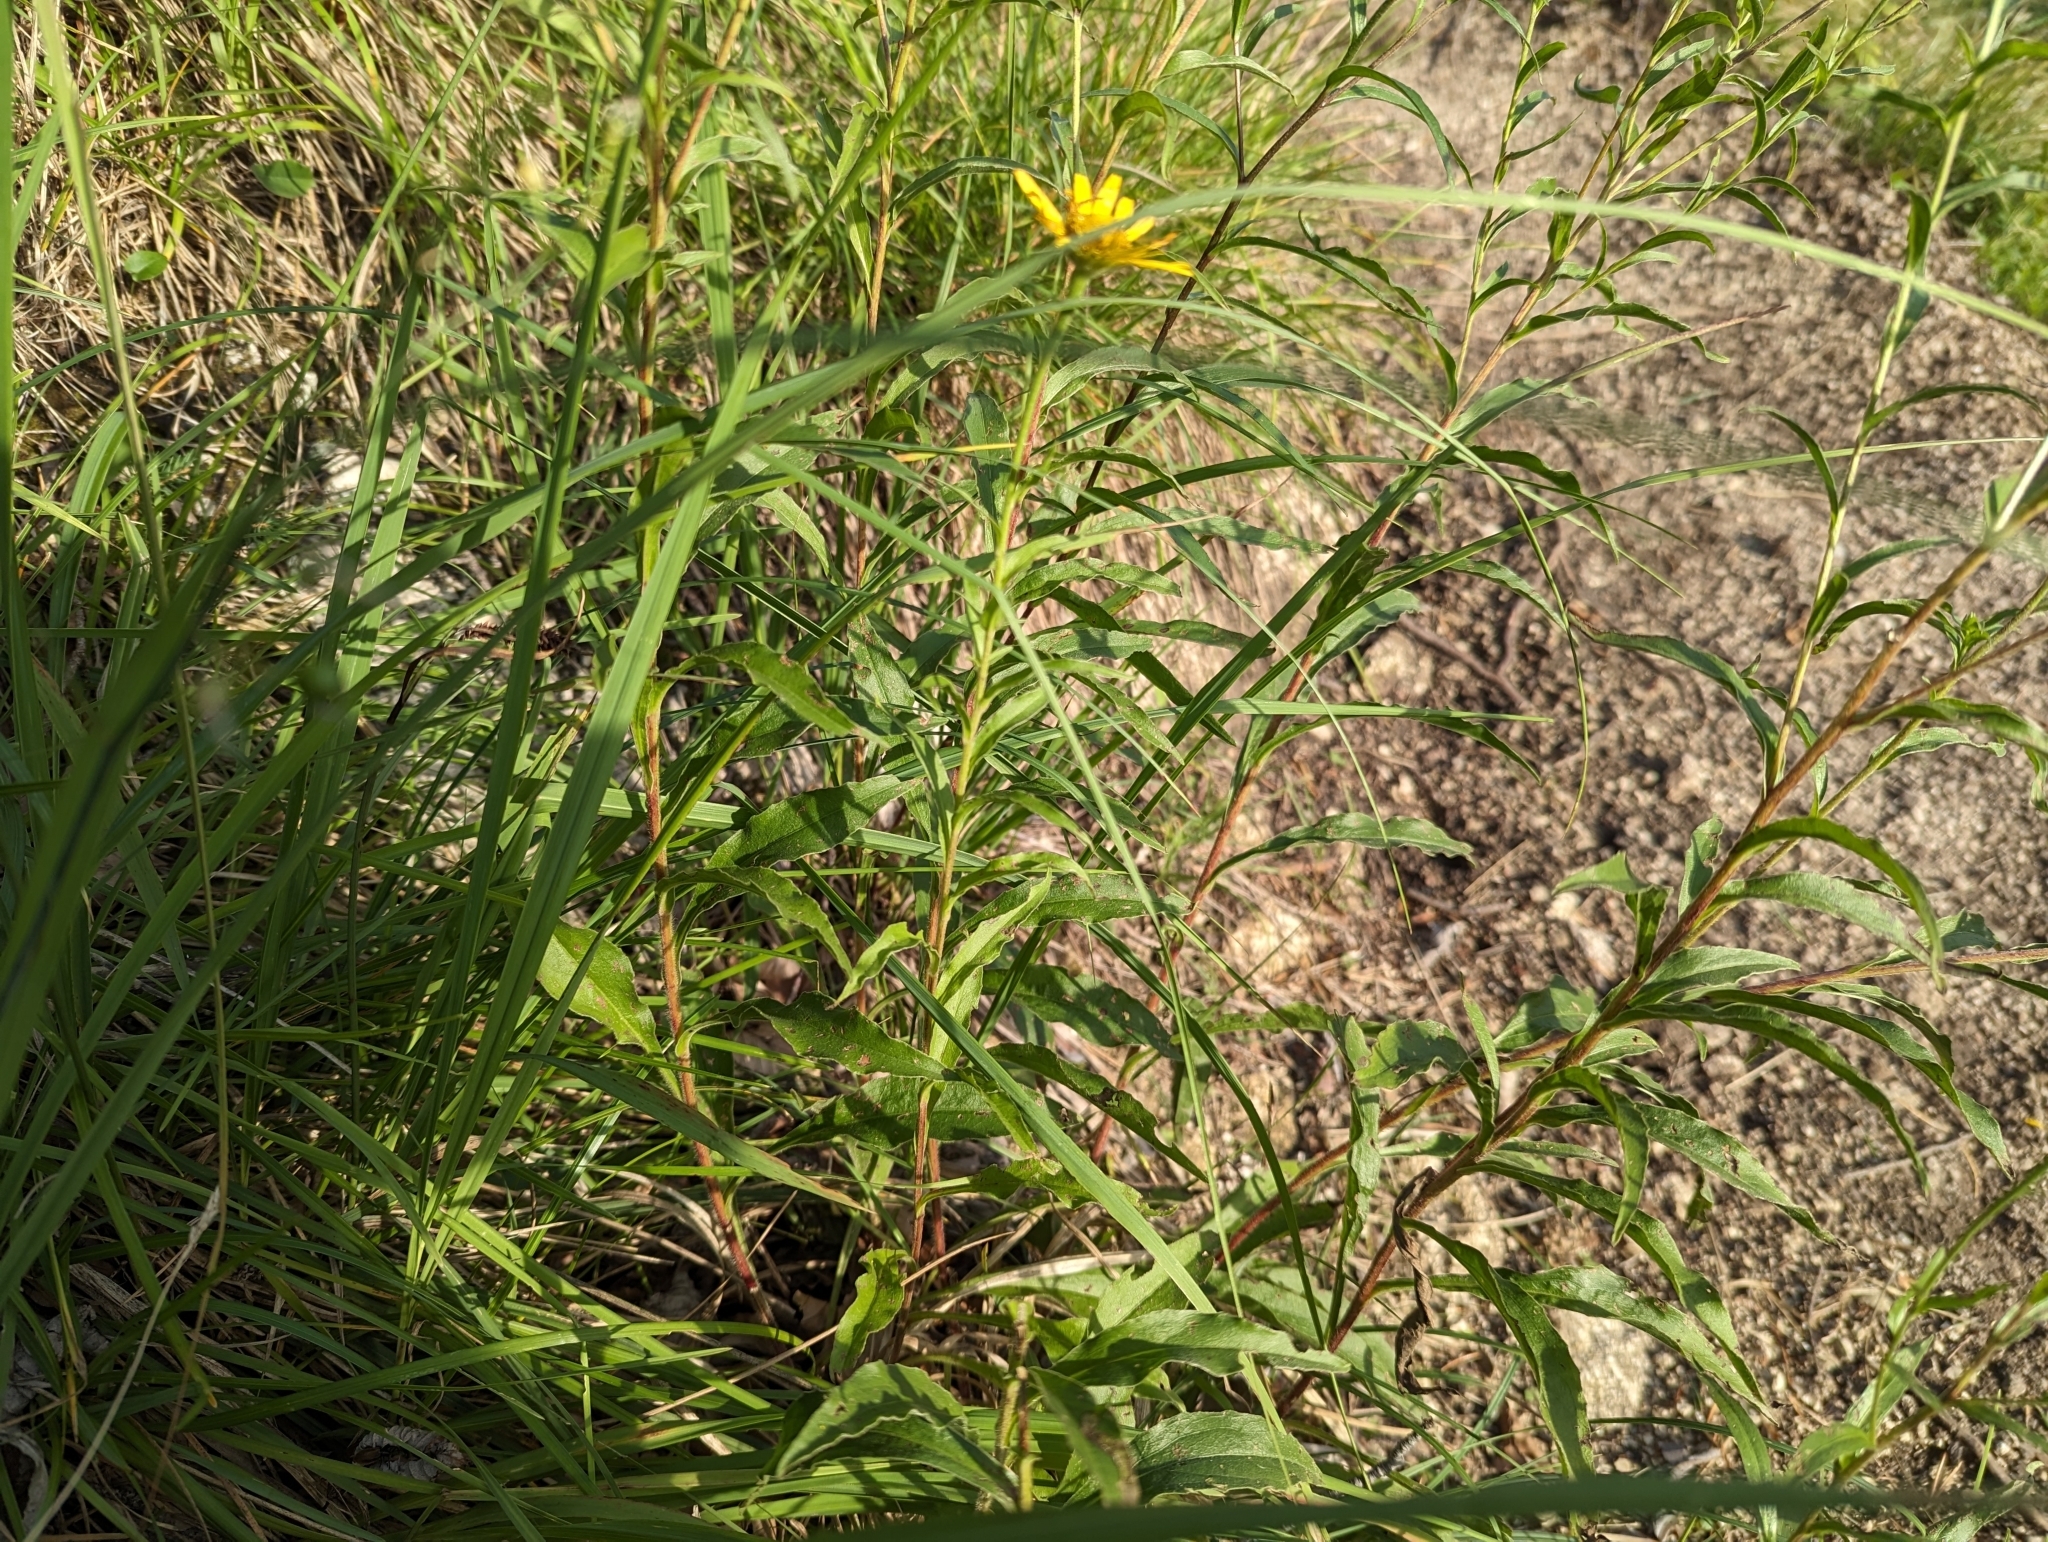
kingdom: Plantae
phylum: Tracheophyta
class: Magnoliopsida
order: Asterales
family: Asteraceae
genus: Buphthalmum
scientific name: Buphthalmum salicifolium
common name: Willow-leaved yellow-oxeye
